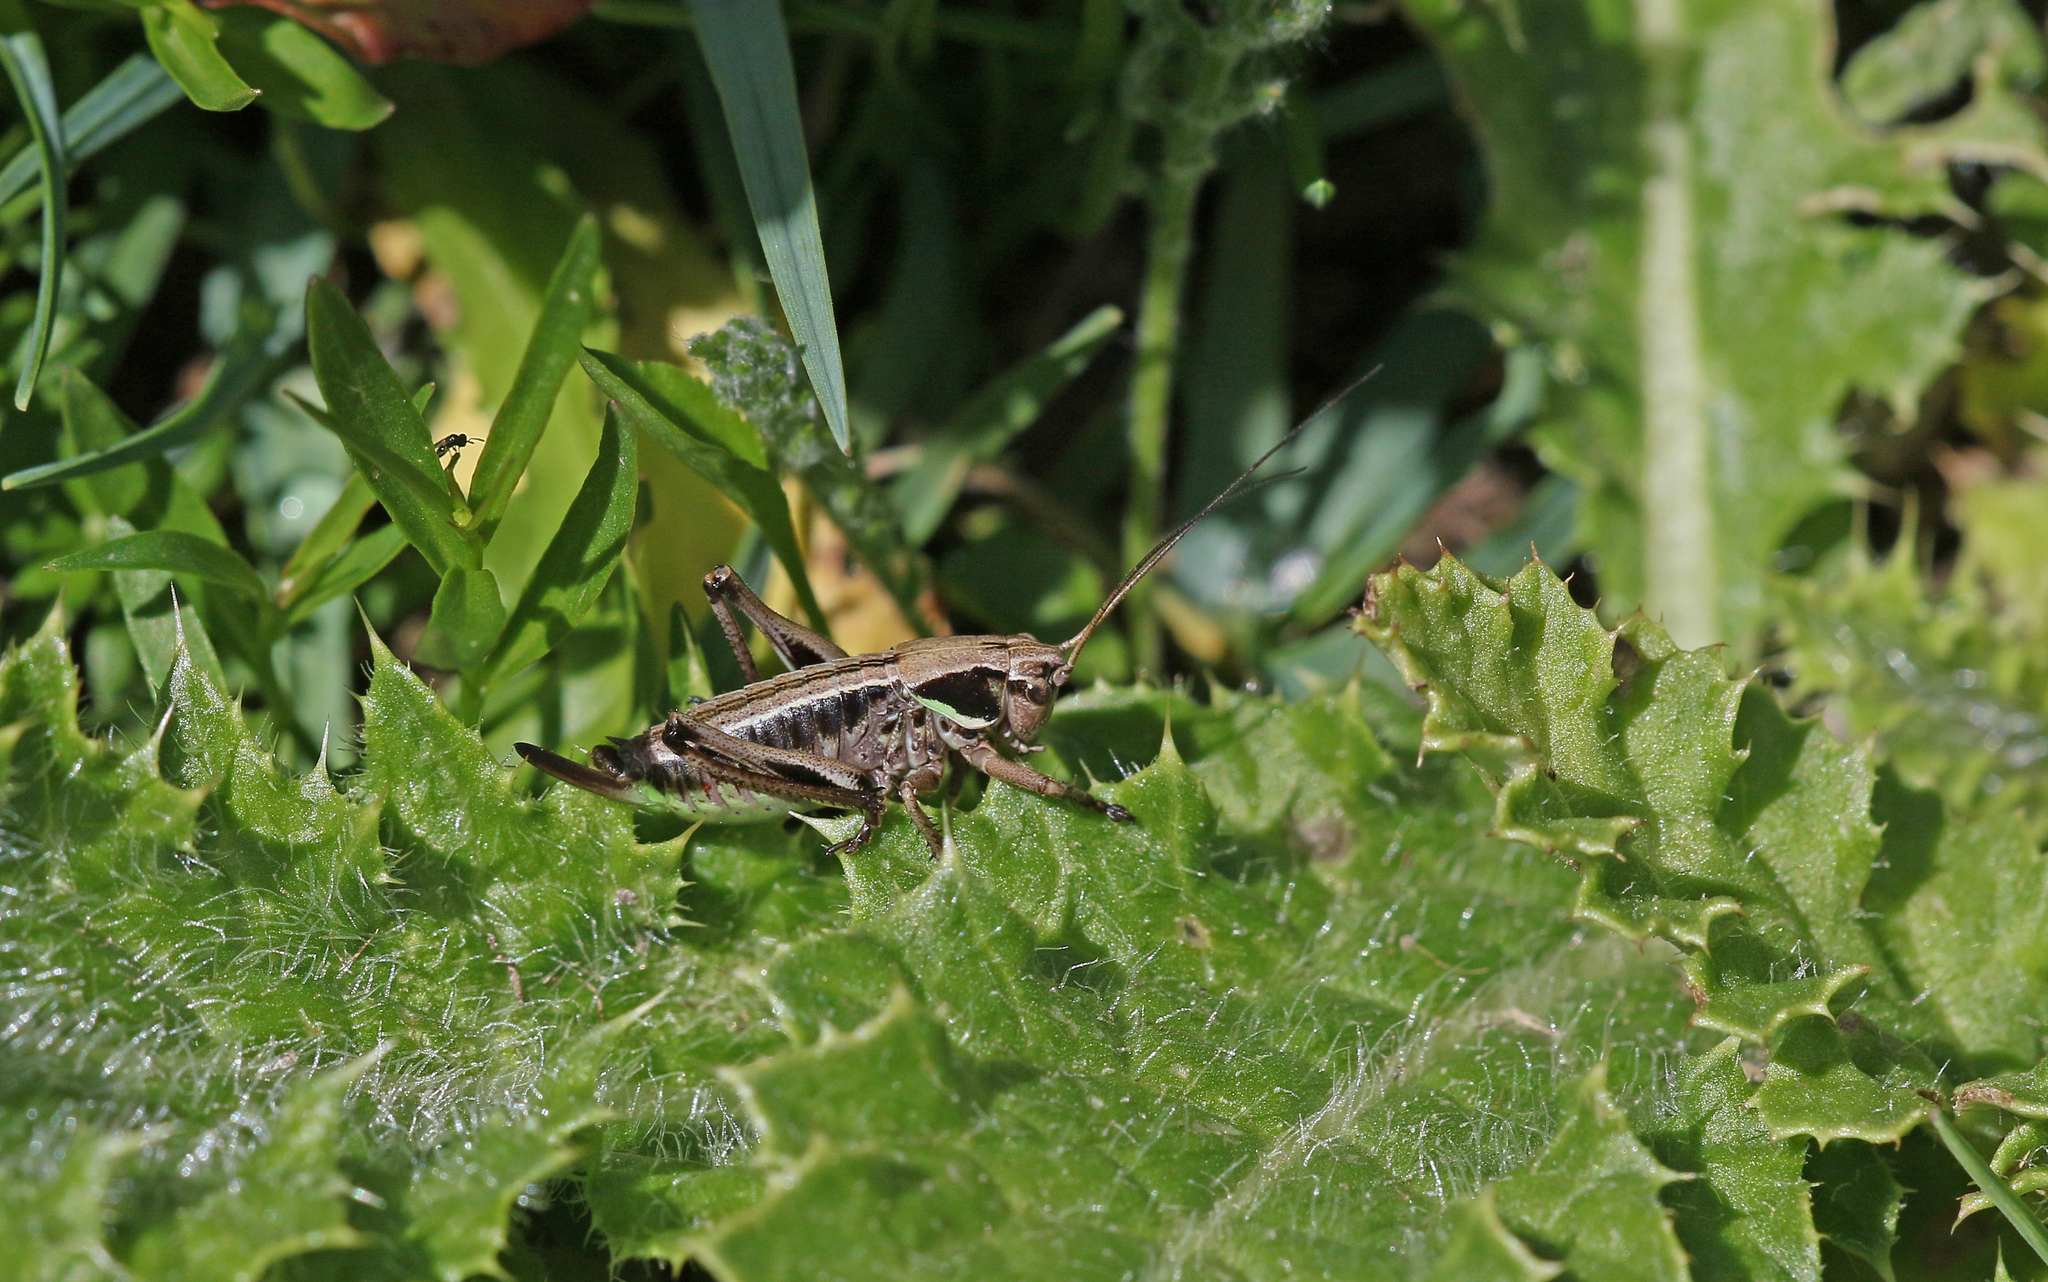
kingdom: Animalia
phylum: Arthropoda
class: Insecta
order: Orthoptera
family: Tettigoniidae
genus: Anonconotus
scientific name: Anonconotus occidentalis
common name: Western alpine bush-cricket
